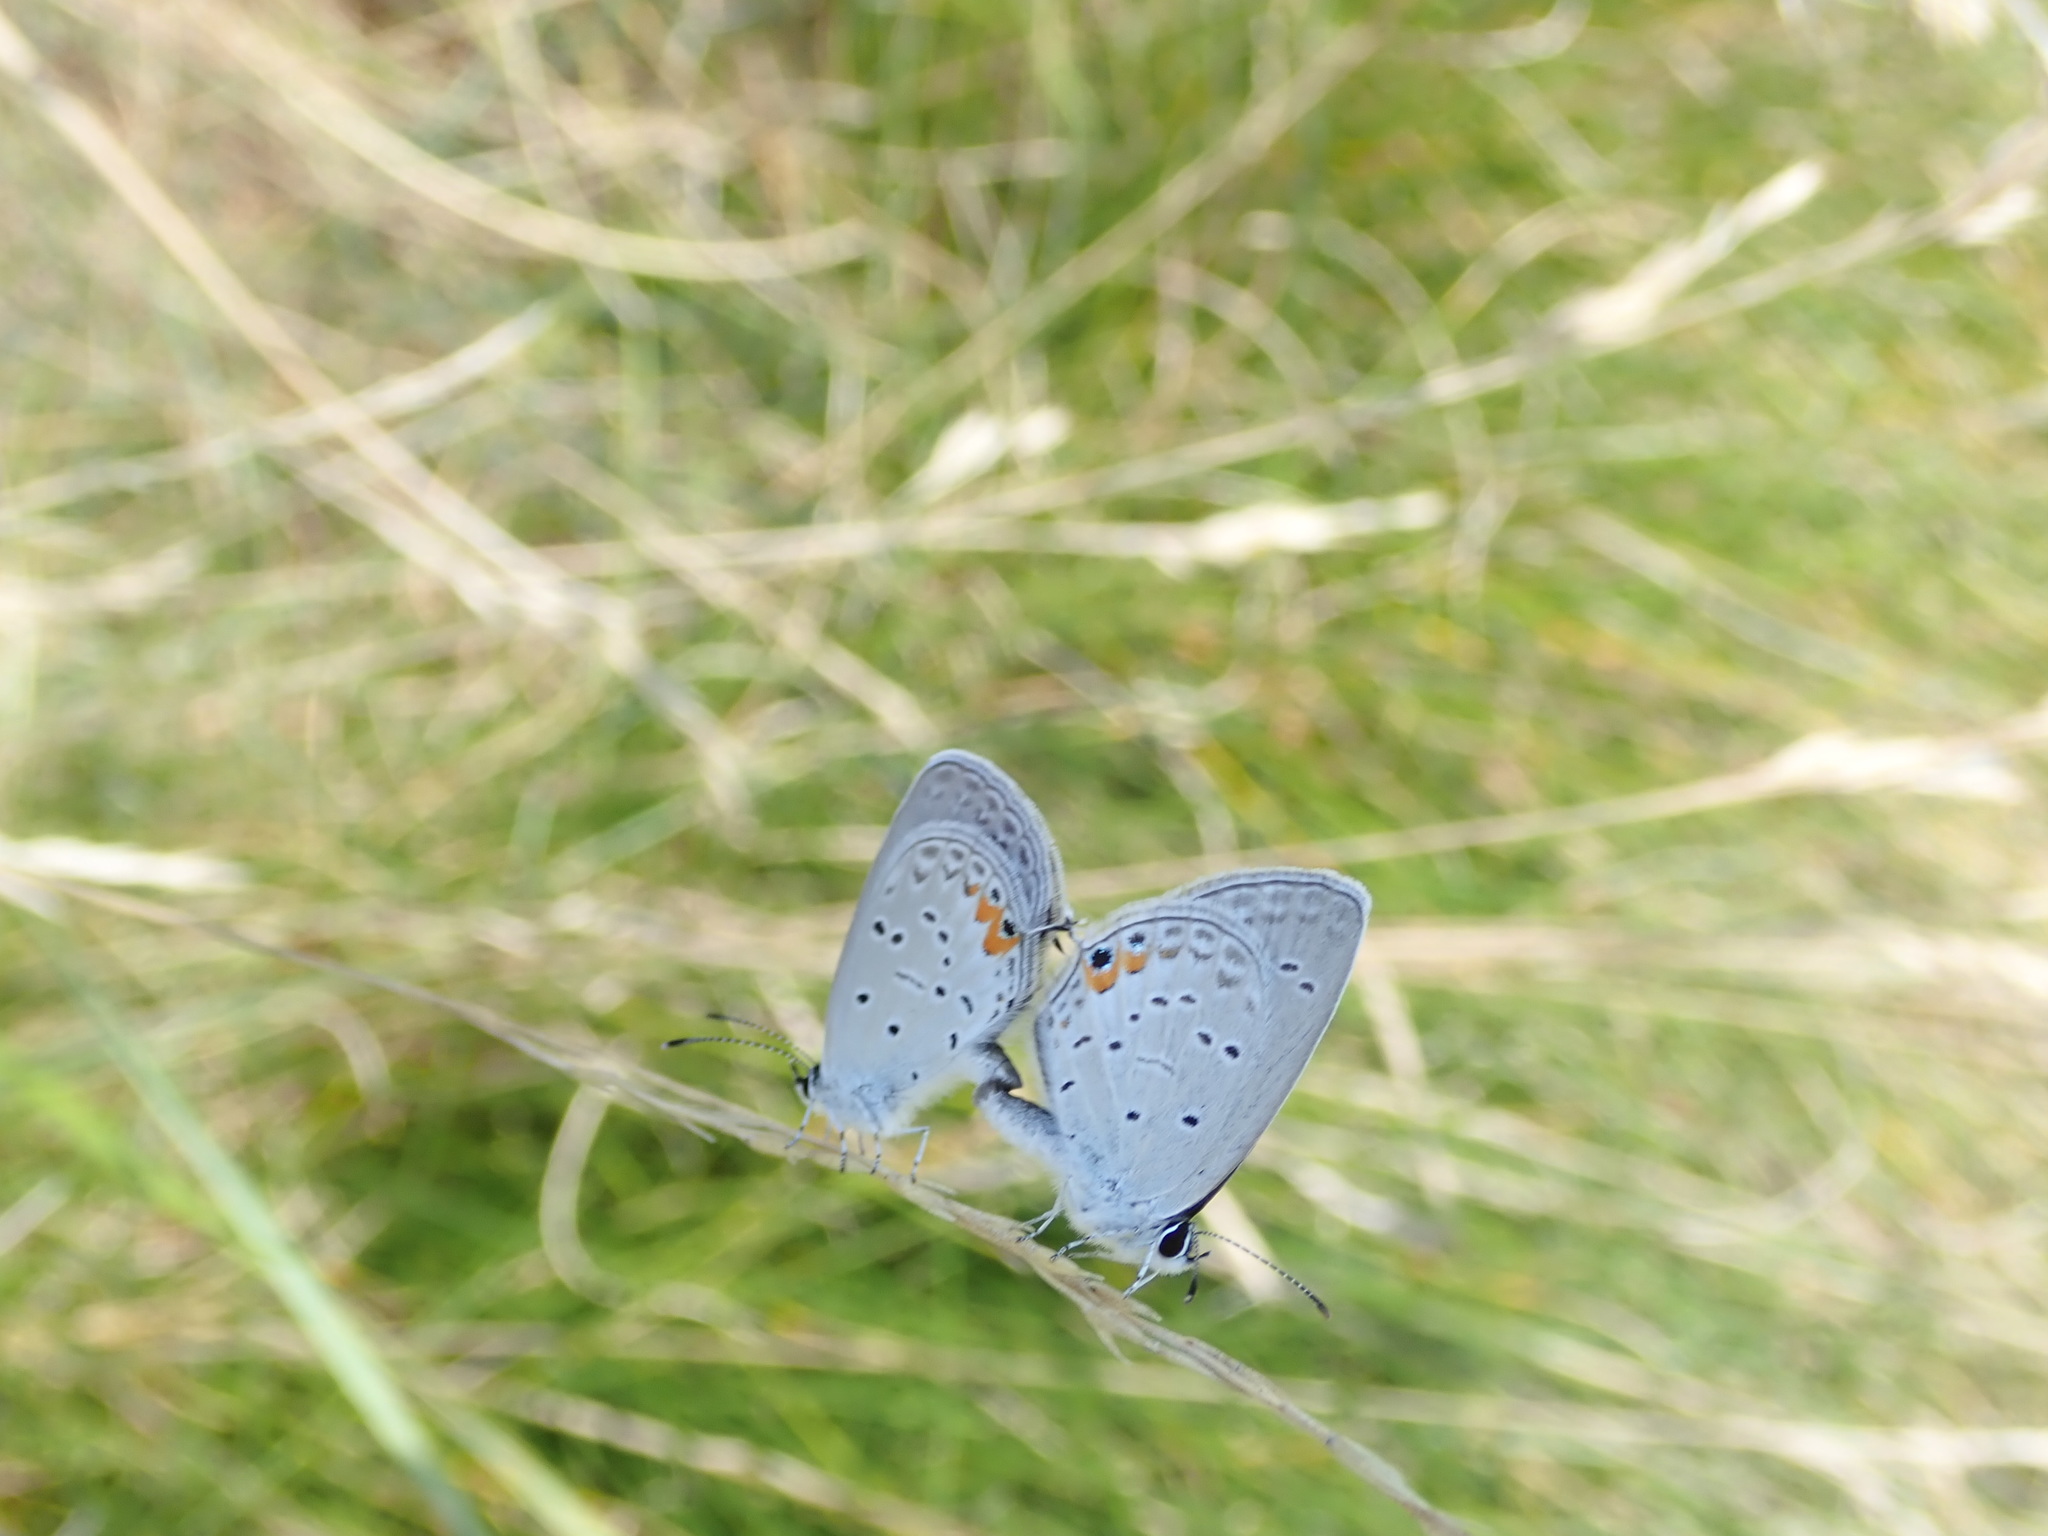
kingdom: Animalia
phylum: Arthropoda
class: Insecta
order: Lepidoptera
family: Lycaenidae
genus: Elkalyce
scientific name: Elkalyce comyntas
